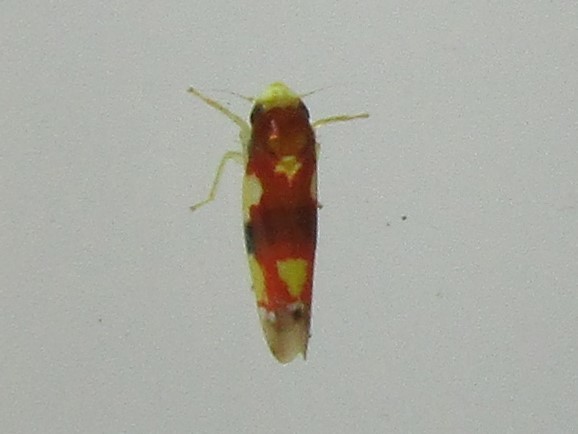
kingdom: Animalia
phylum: Arthropoda
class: Insecta
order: Hemiptera
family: Cicadellidae
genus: Erythroneura
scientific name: Erythroneura bistrata
